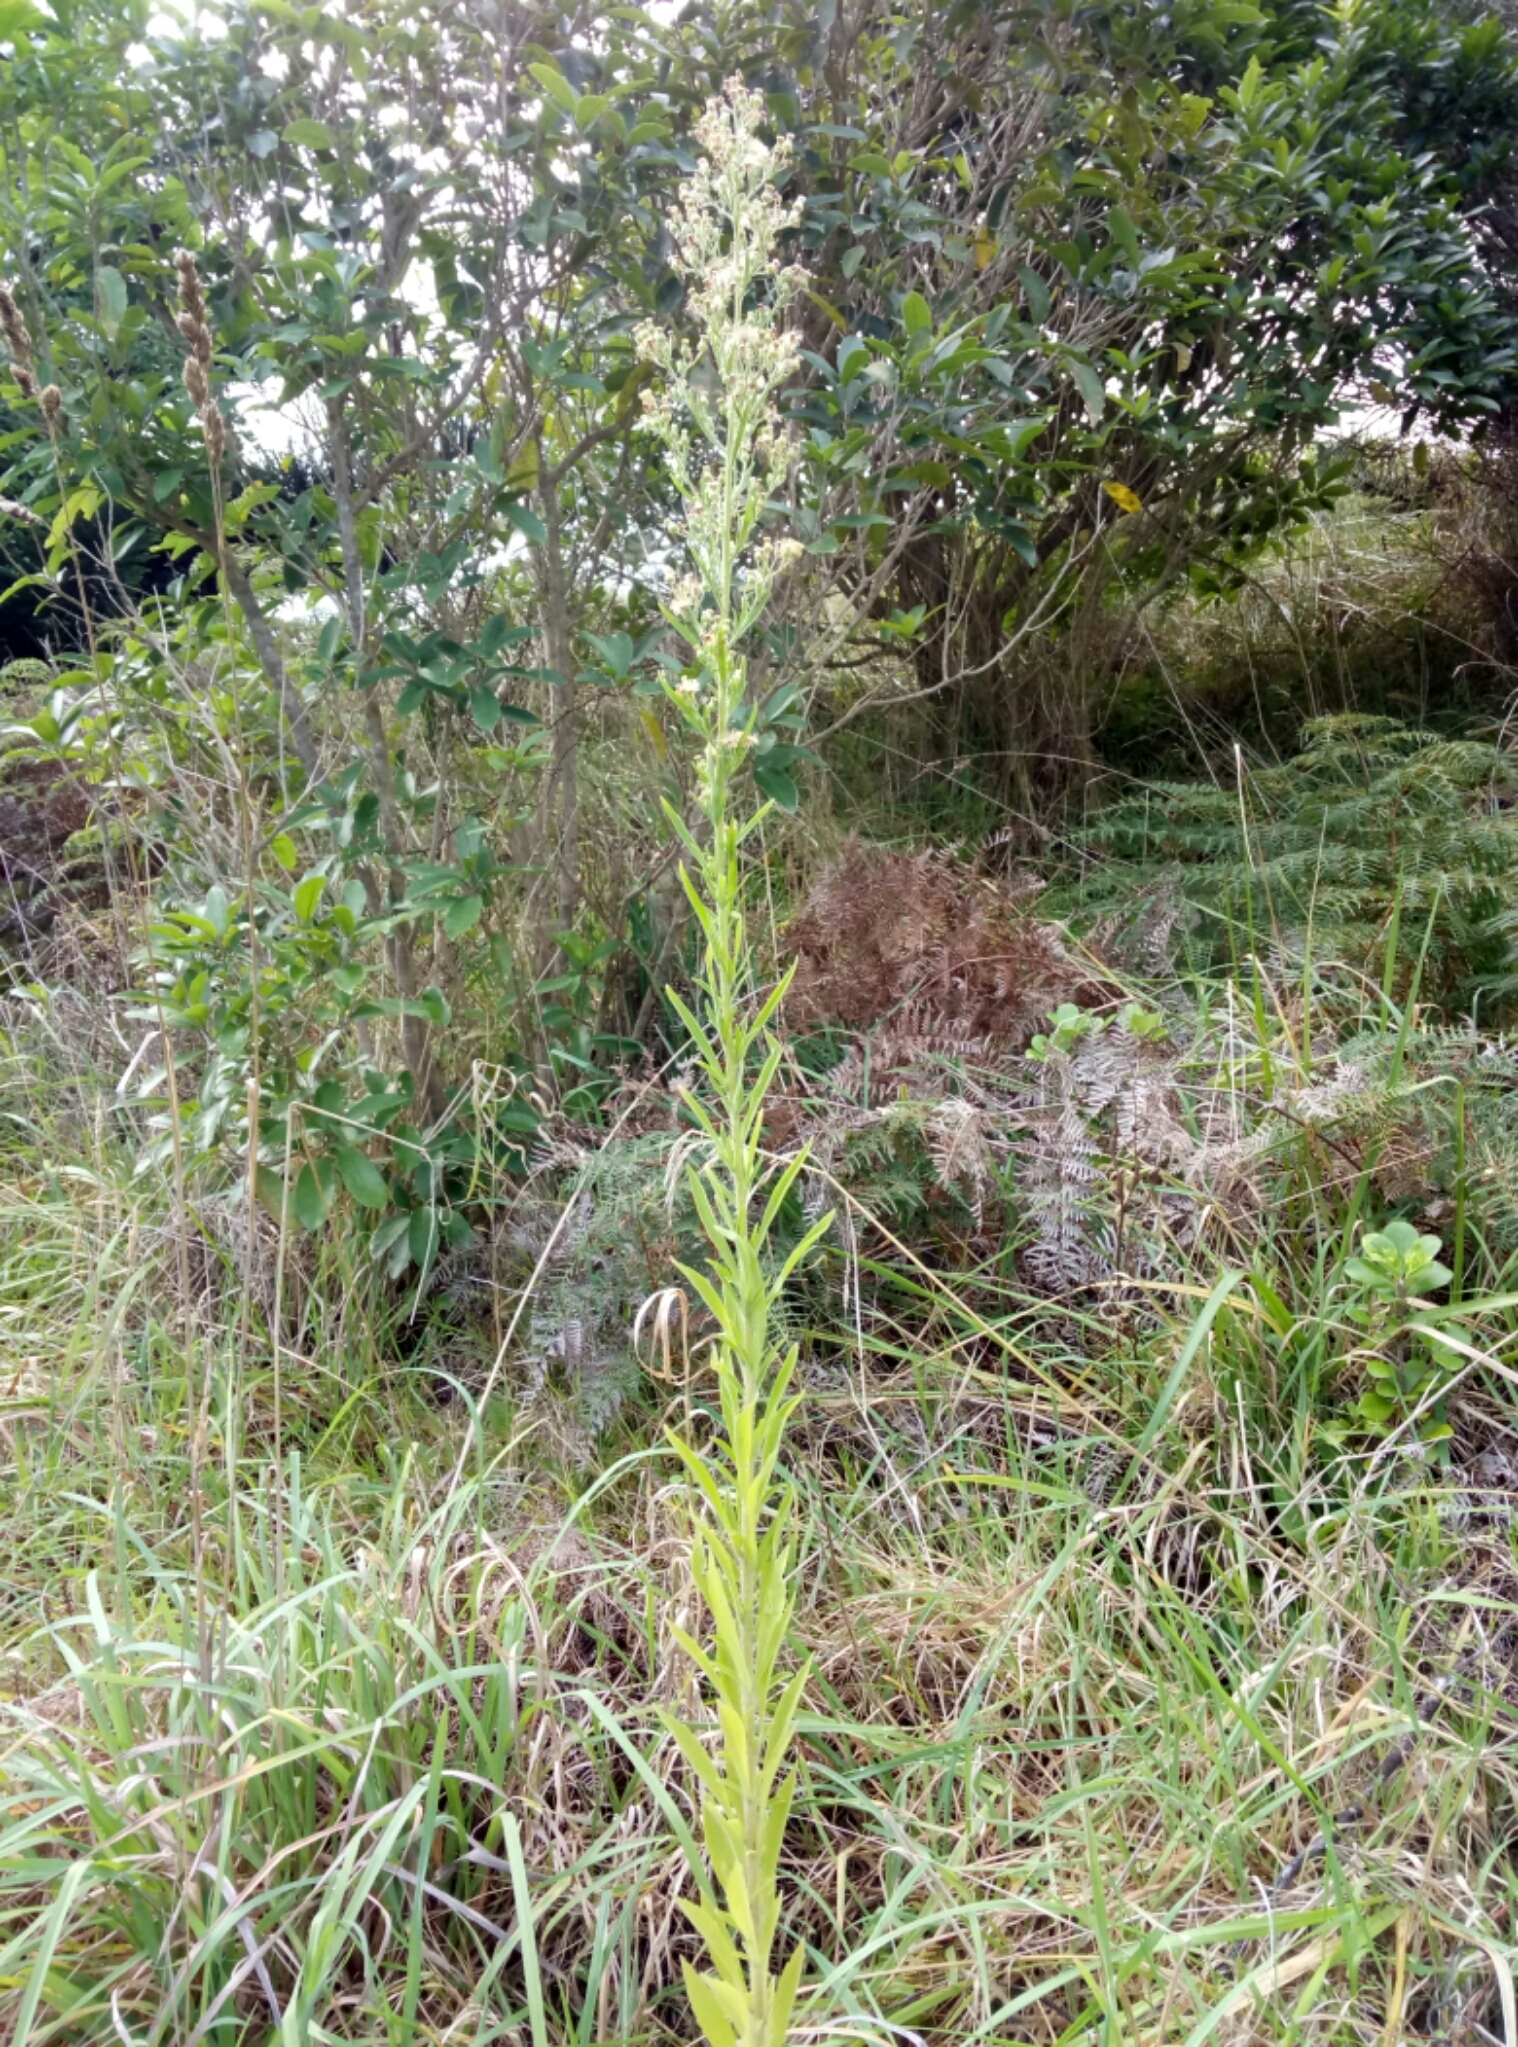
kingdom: Plantae
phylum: Tracheophyta
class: Magnoliopsida
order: Asterales
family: Asteraceae
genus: Erigeron
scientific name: Erigeron canadensis
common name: Canadian fleabane
